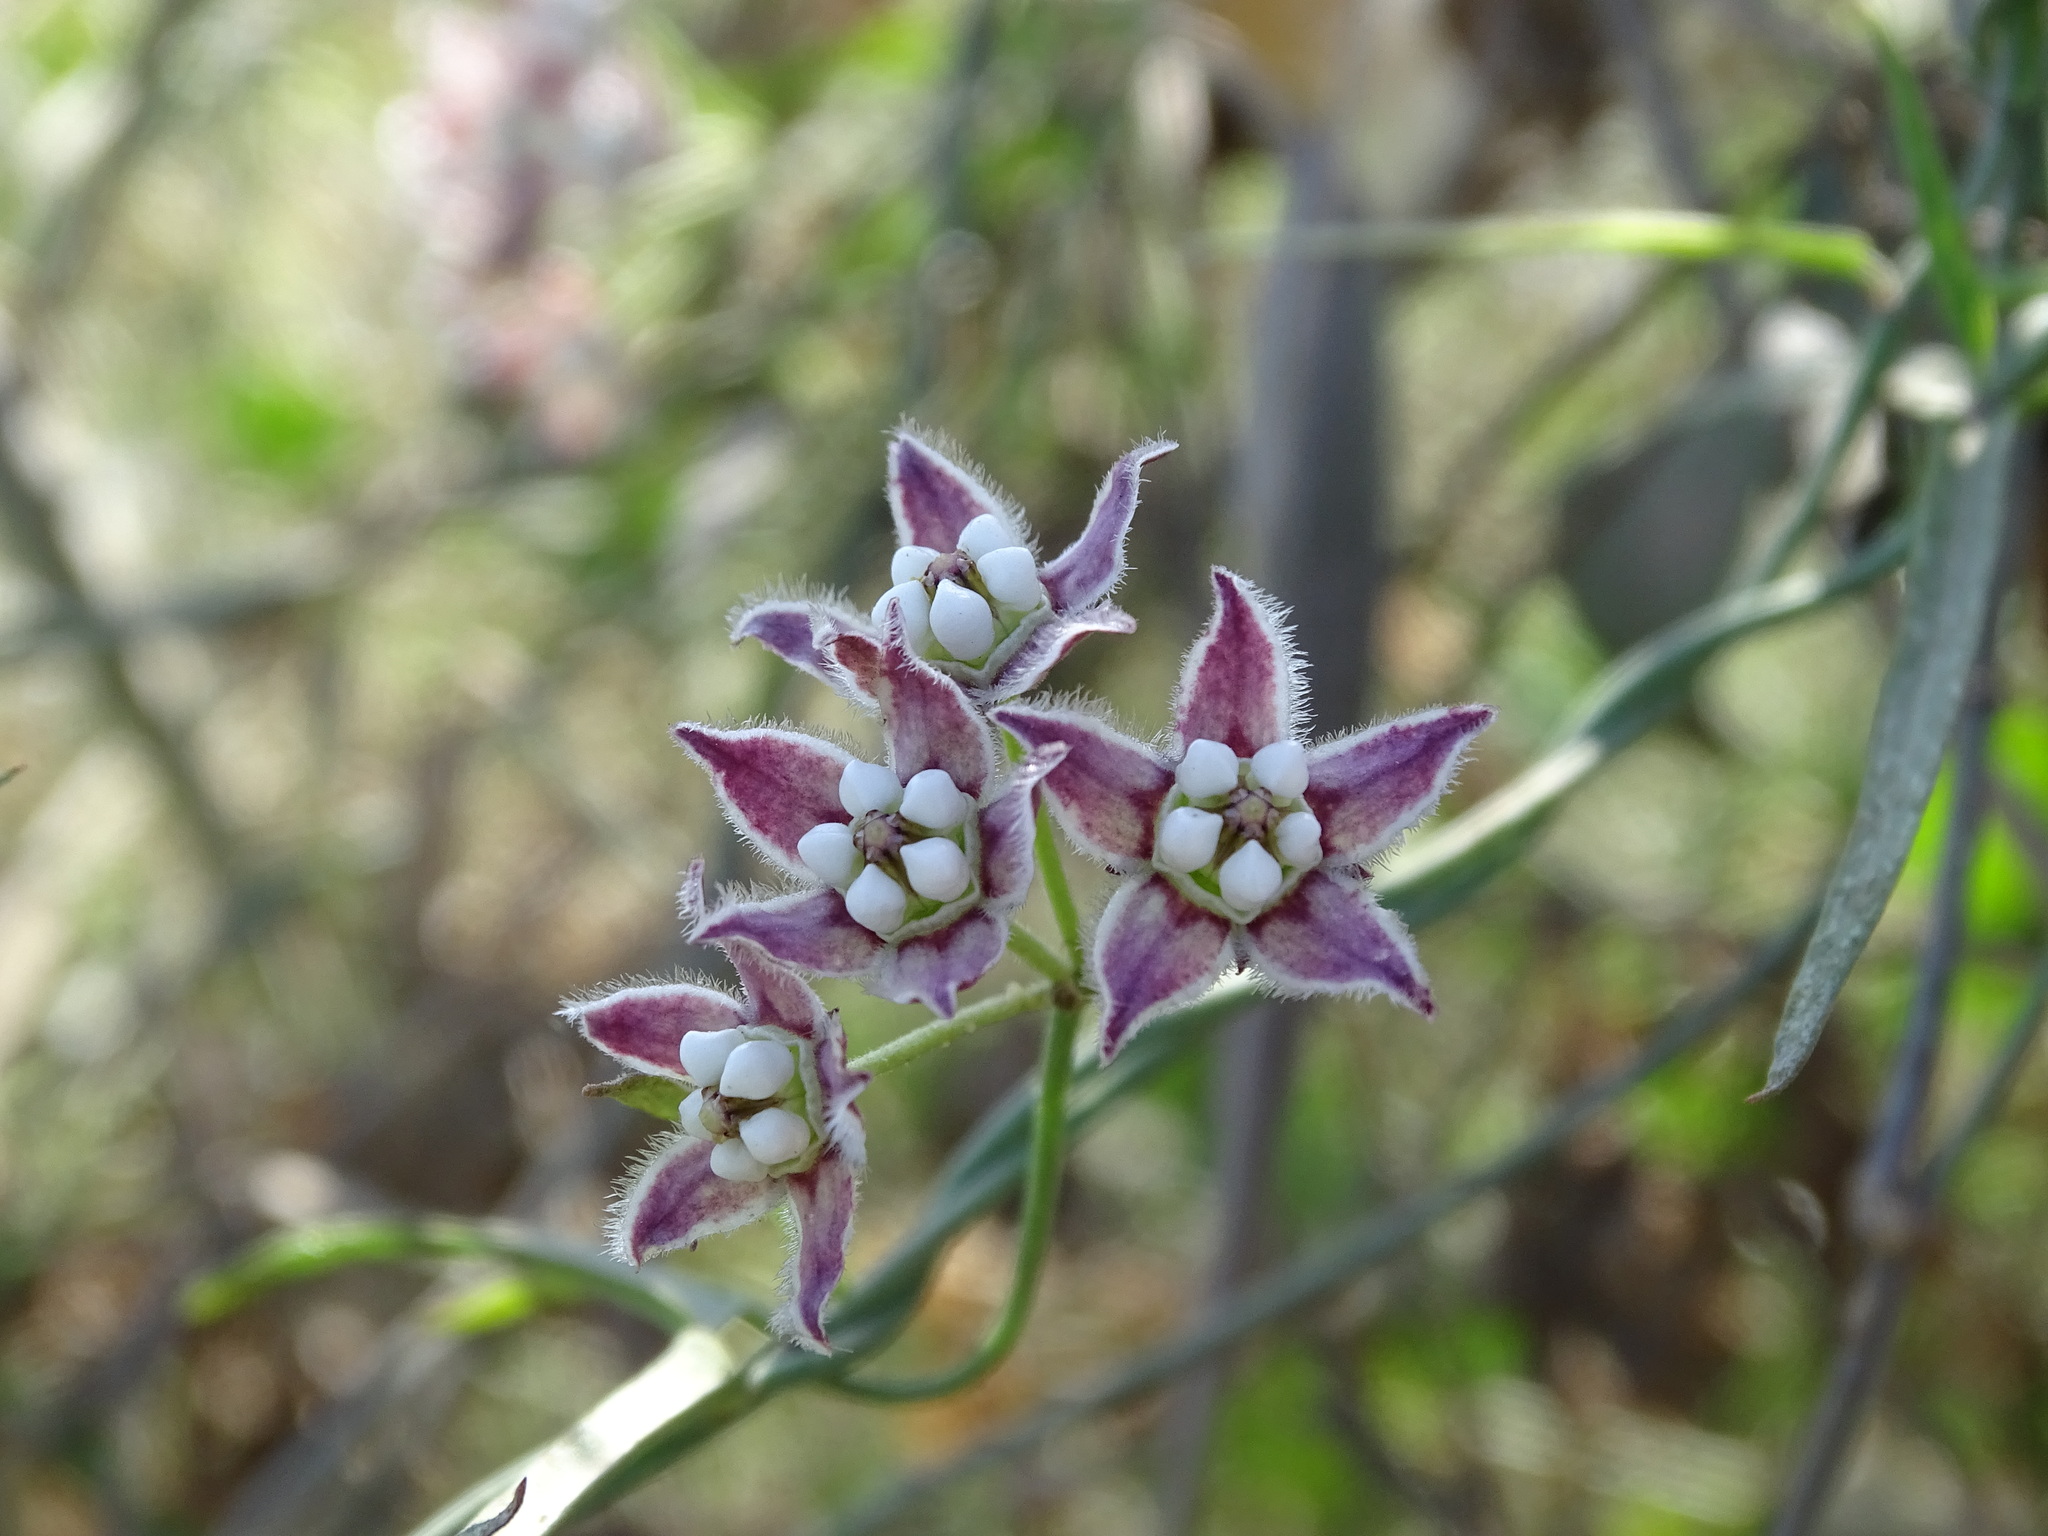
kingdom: Plantae
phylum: Tracheophyta
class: Magnoliopsida
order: Gentianales
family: Apocynaceae
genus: Funastrum
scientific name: Funastrum heterophyllum
